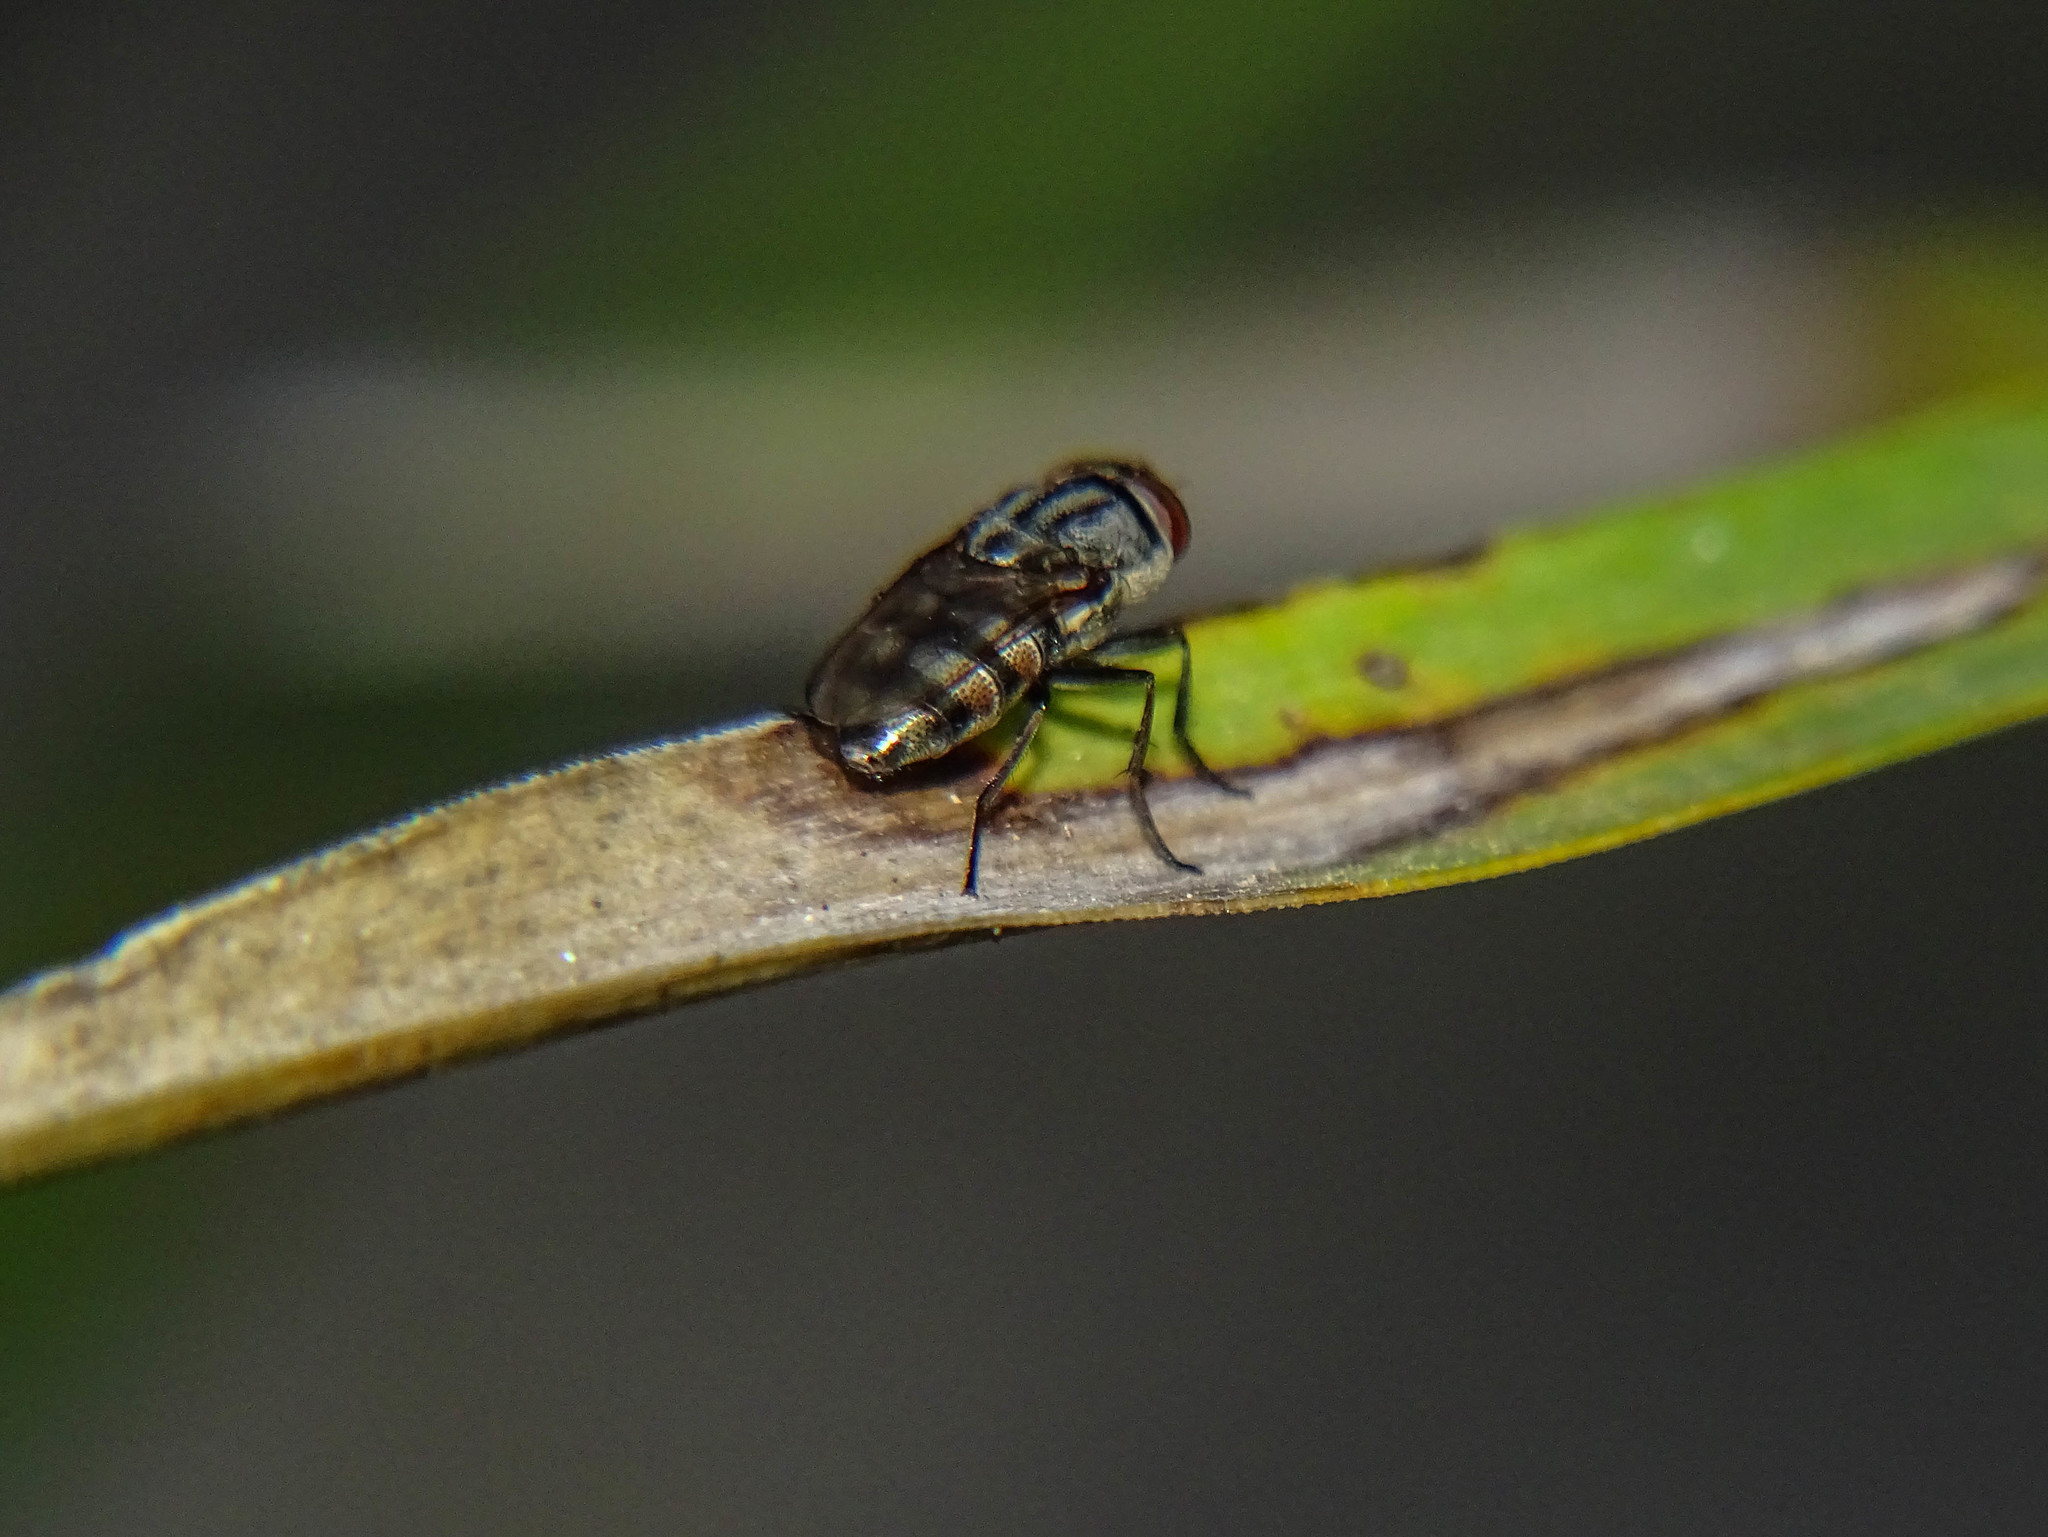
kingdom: Animalia
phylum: Arthropoda
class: Insecta
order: Diptera
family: Calliphoridae
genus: Stomorhina
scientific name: Stomorhina lunata
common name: Locust blowfly
